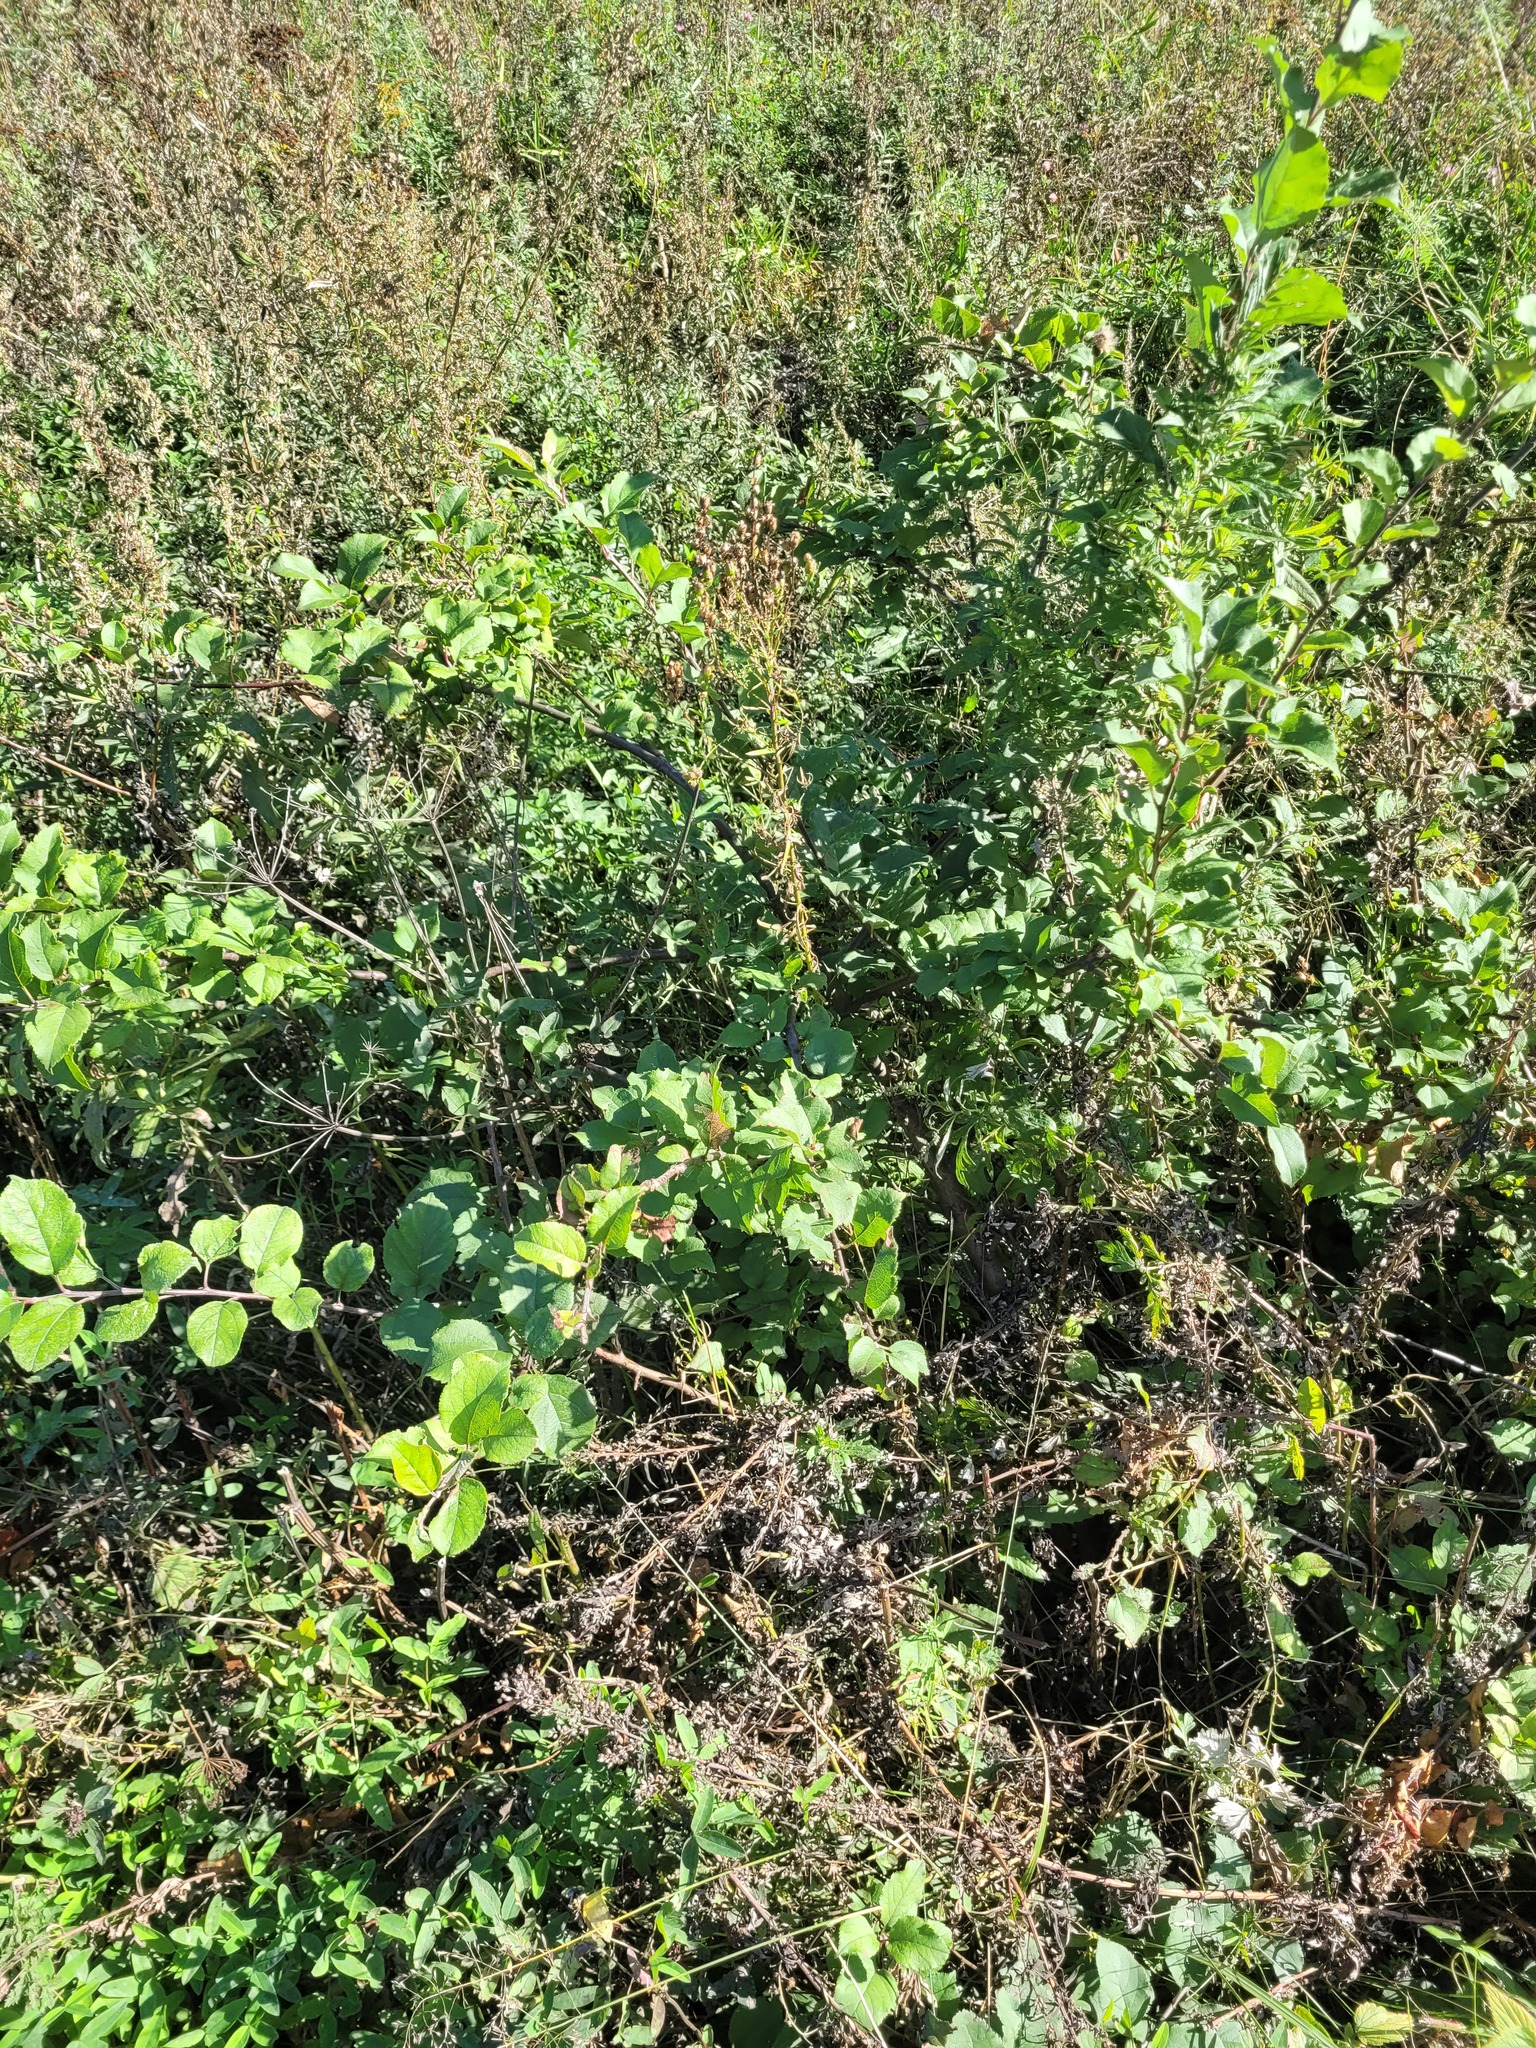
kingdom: Plantae
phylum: Tracheophyta
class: Magnoliopsida
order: Rosales
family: Rosaceae
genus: Malus
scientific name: Malus domestica
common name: Apple
